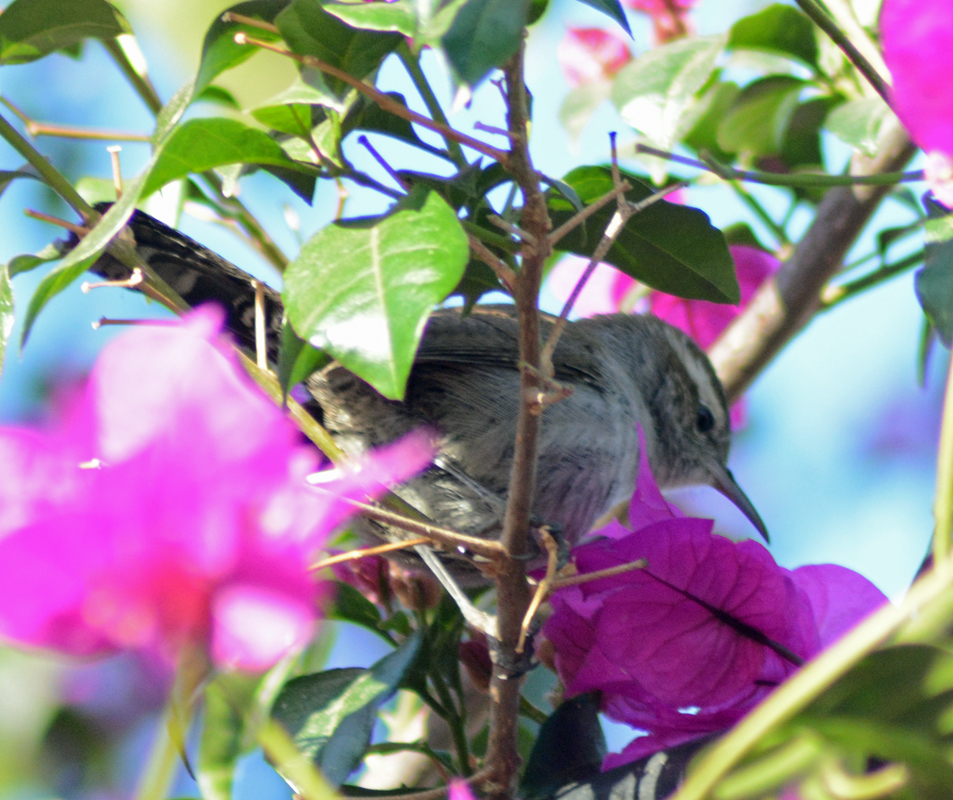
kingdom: Animalia
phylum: Chordata
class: Aves
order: Passeriformes
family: Troglodytidae
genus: Thryomanes
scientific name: Thryomanes bewickii
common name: Bewick's wren
